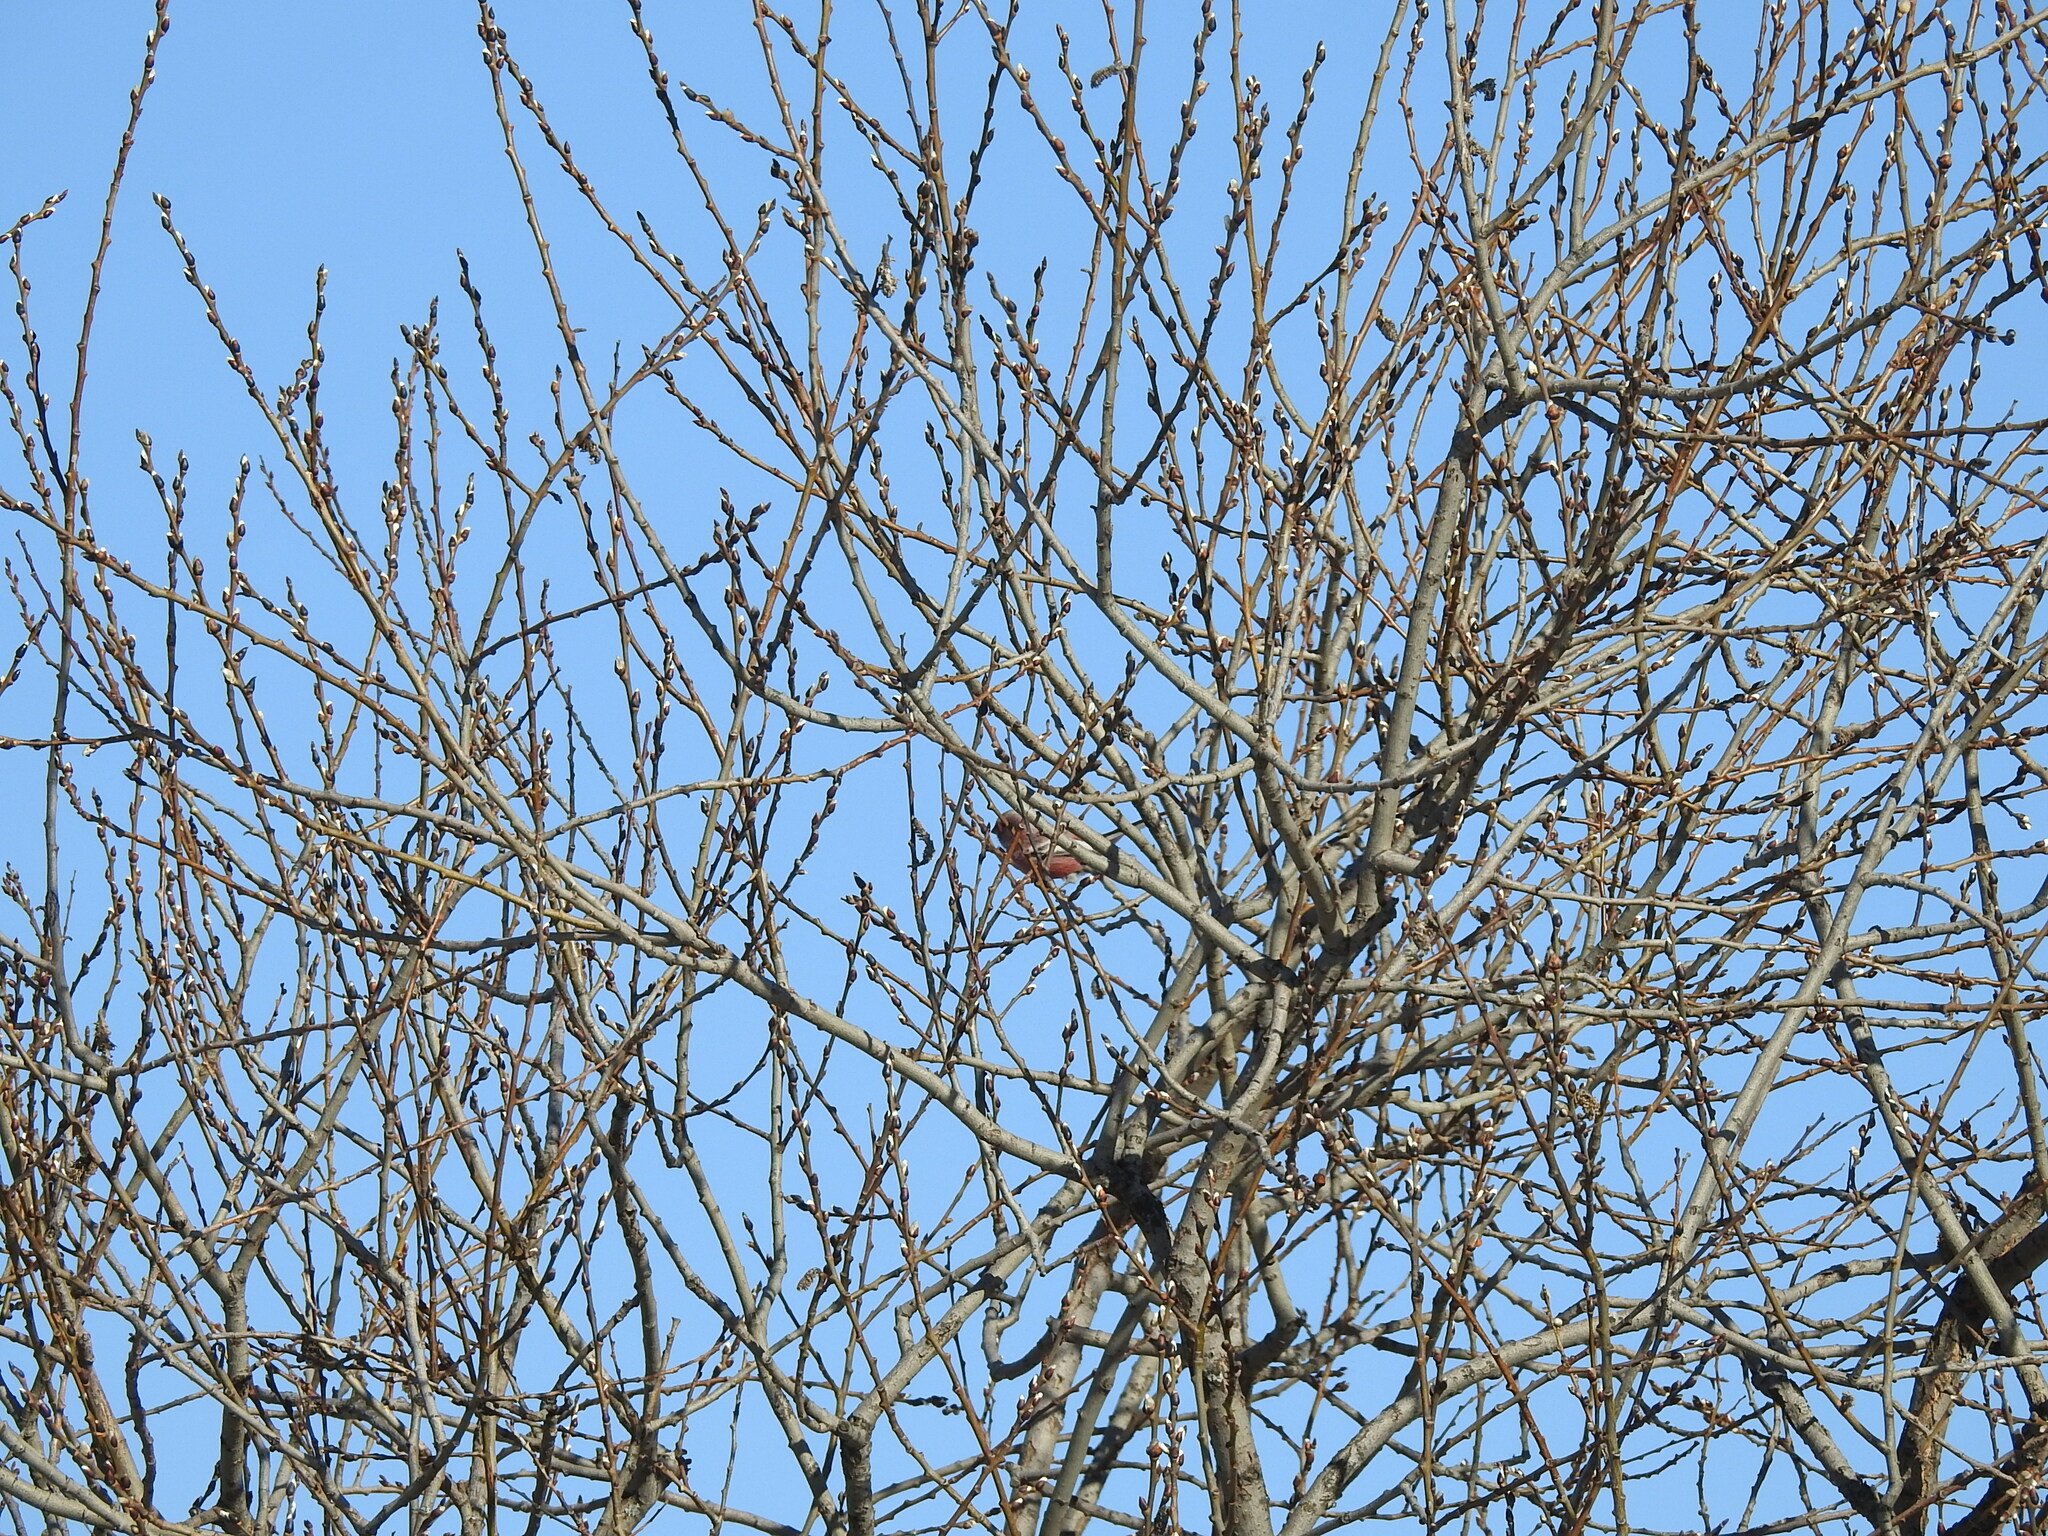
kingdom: Animalia
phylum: Chordata
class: Aves
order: Passeriformes
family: Fringillidae
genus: Carpodacus
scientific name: Carpodacus sibiricus
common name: Long-tailed rosefinch
